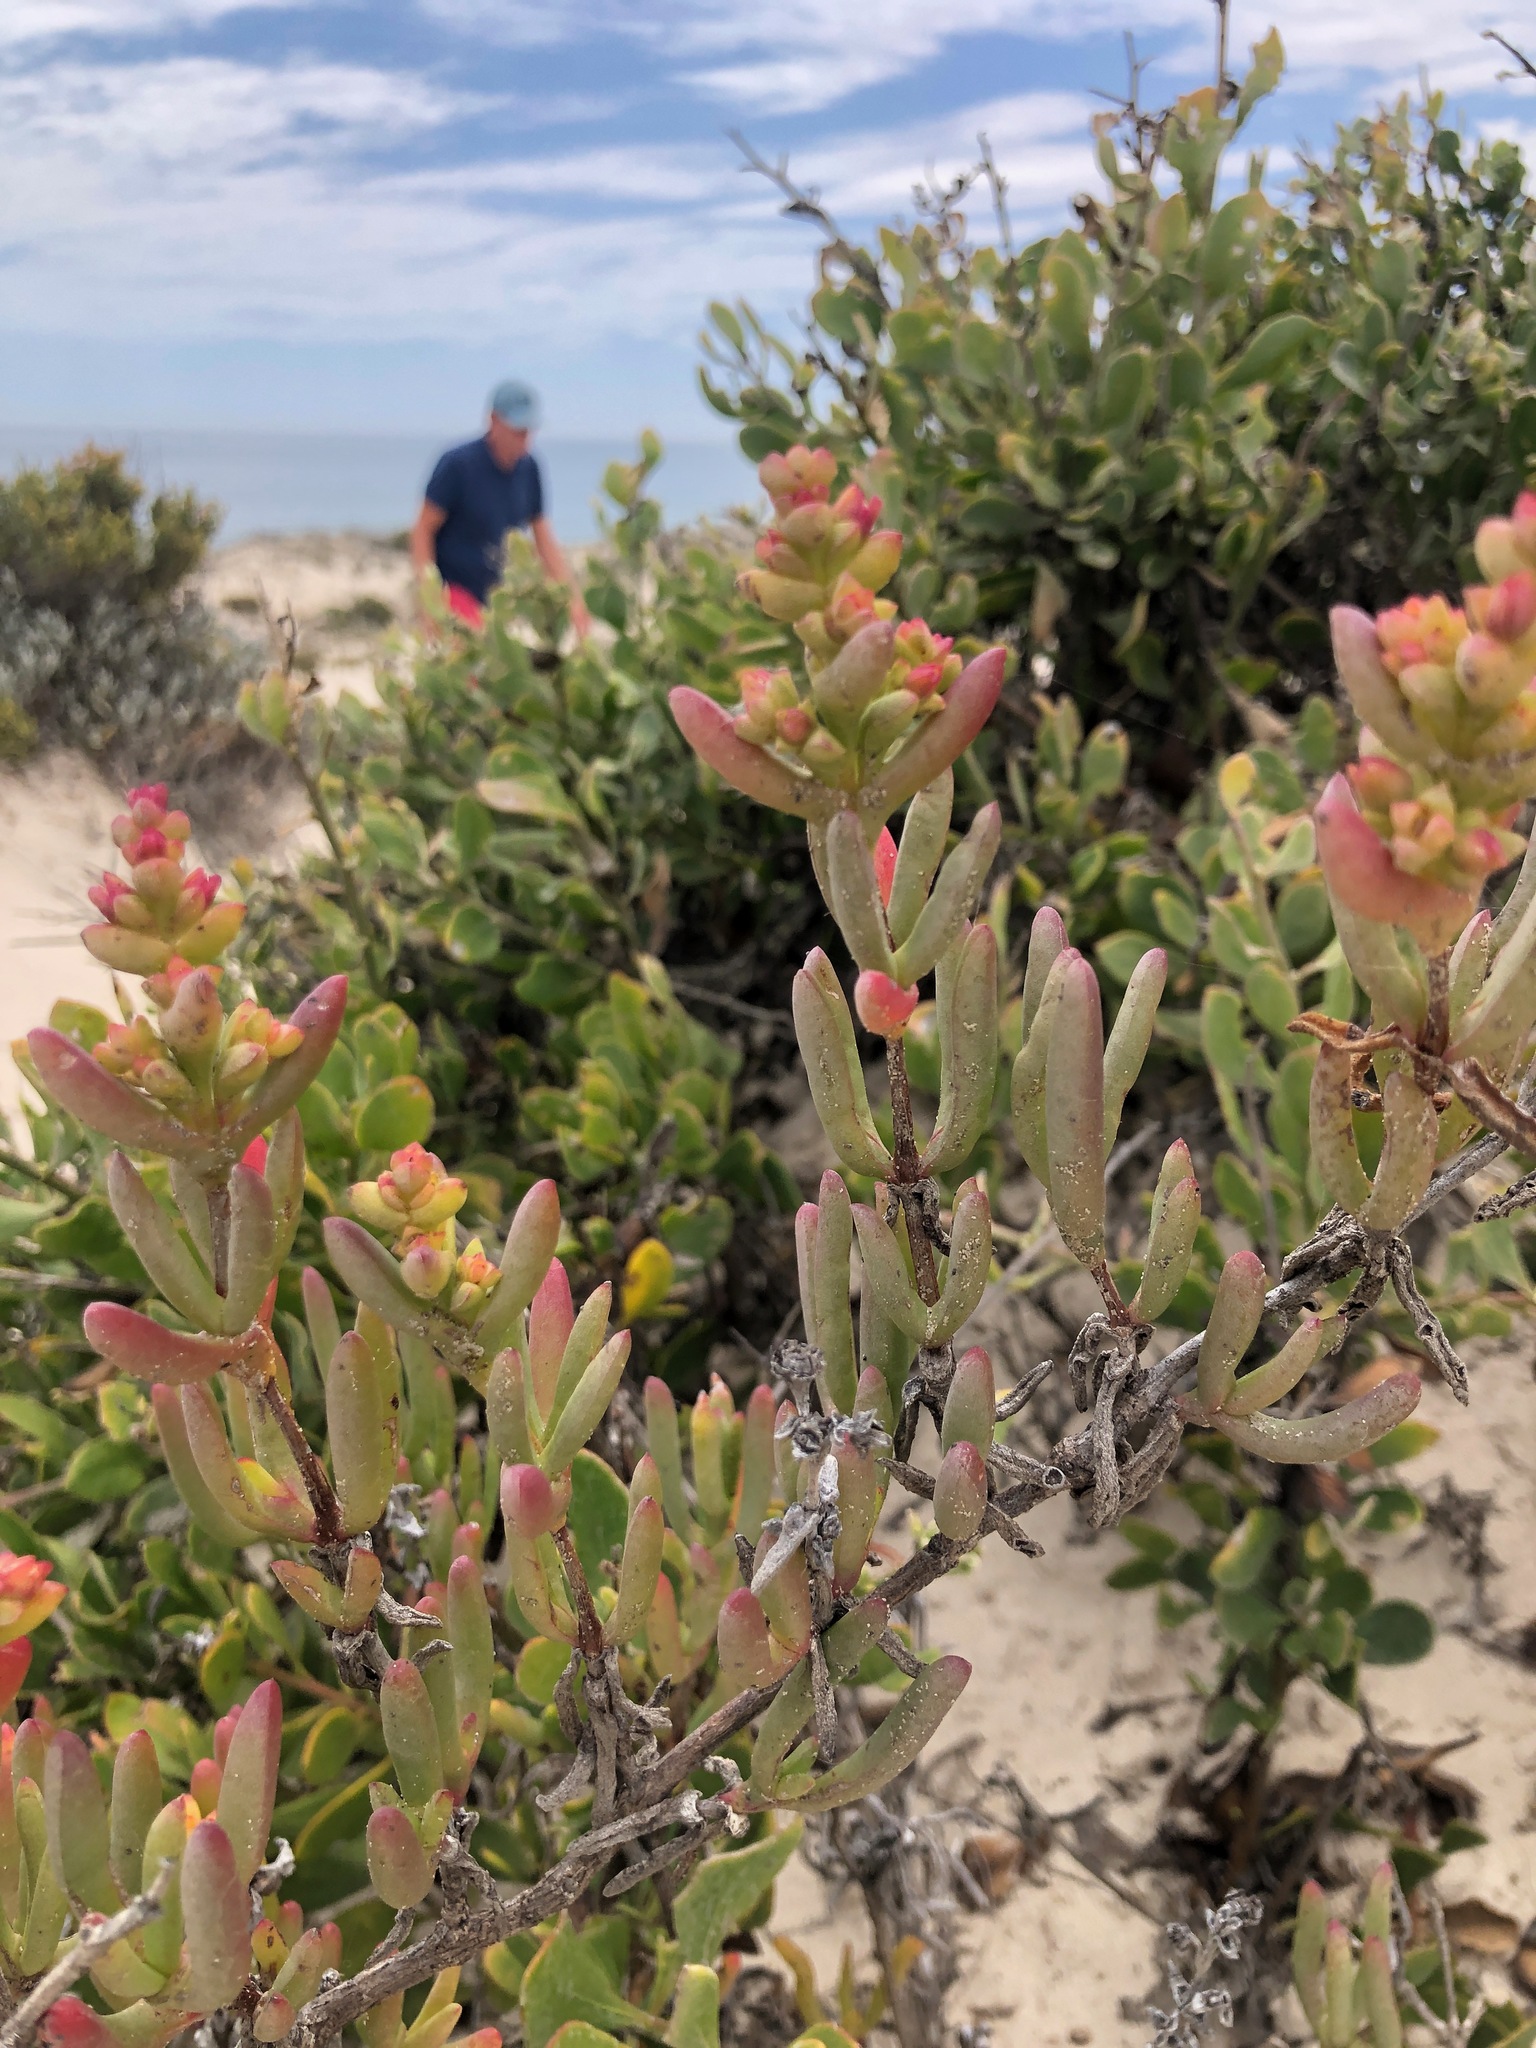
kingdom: Plantae
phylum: Tracheophyta
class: Magnoliopsida
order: Caryophyllales
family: Aizoaceae
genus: Ruschia
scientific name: Ruschia macowanii
